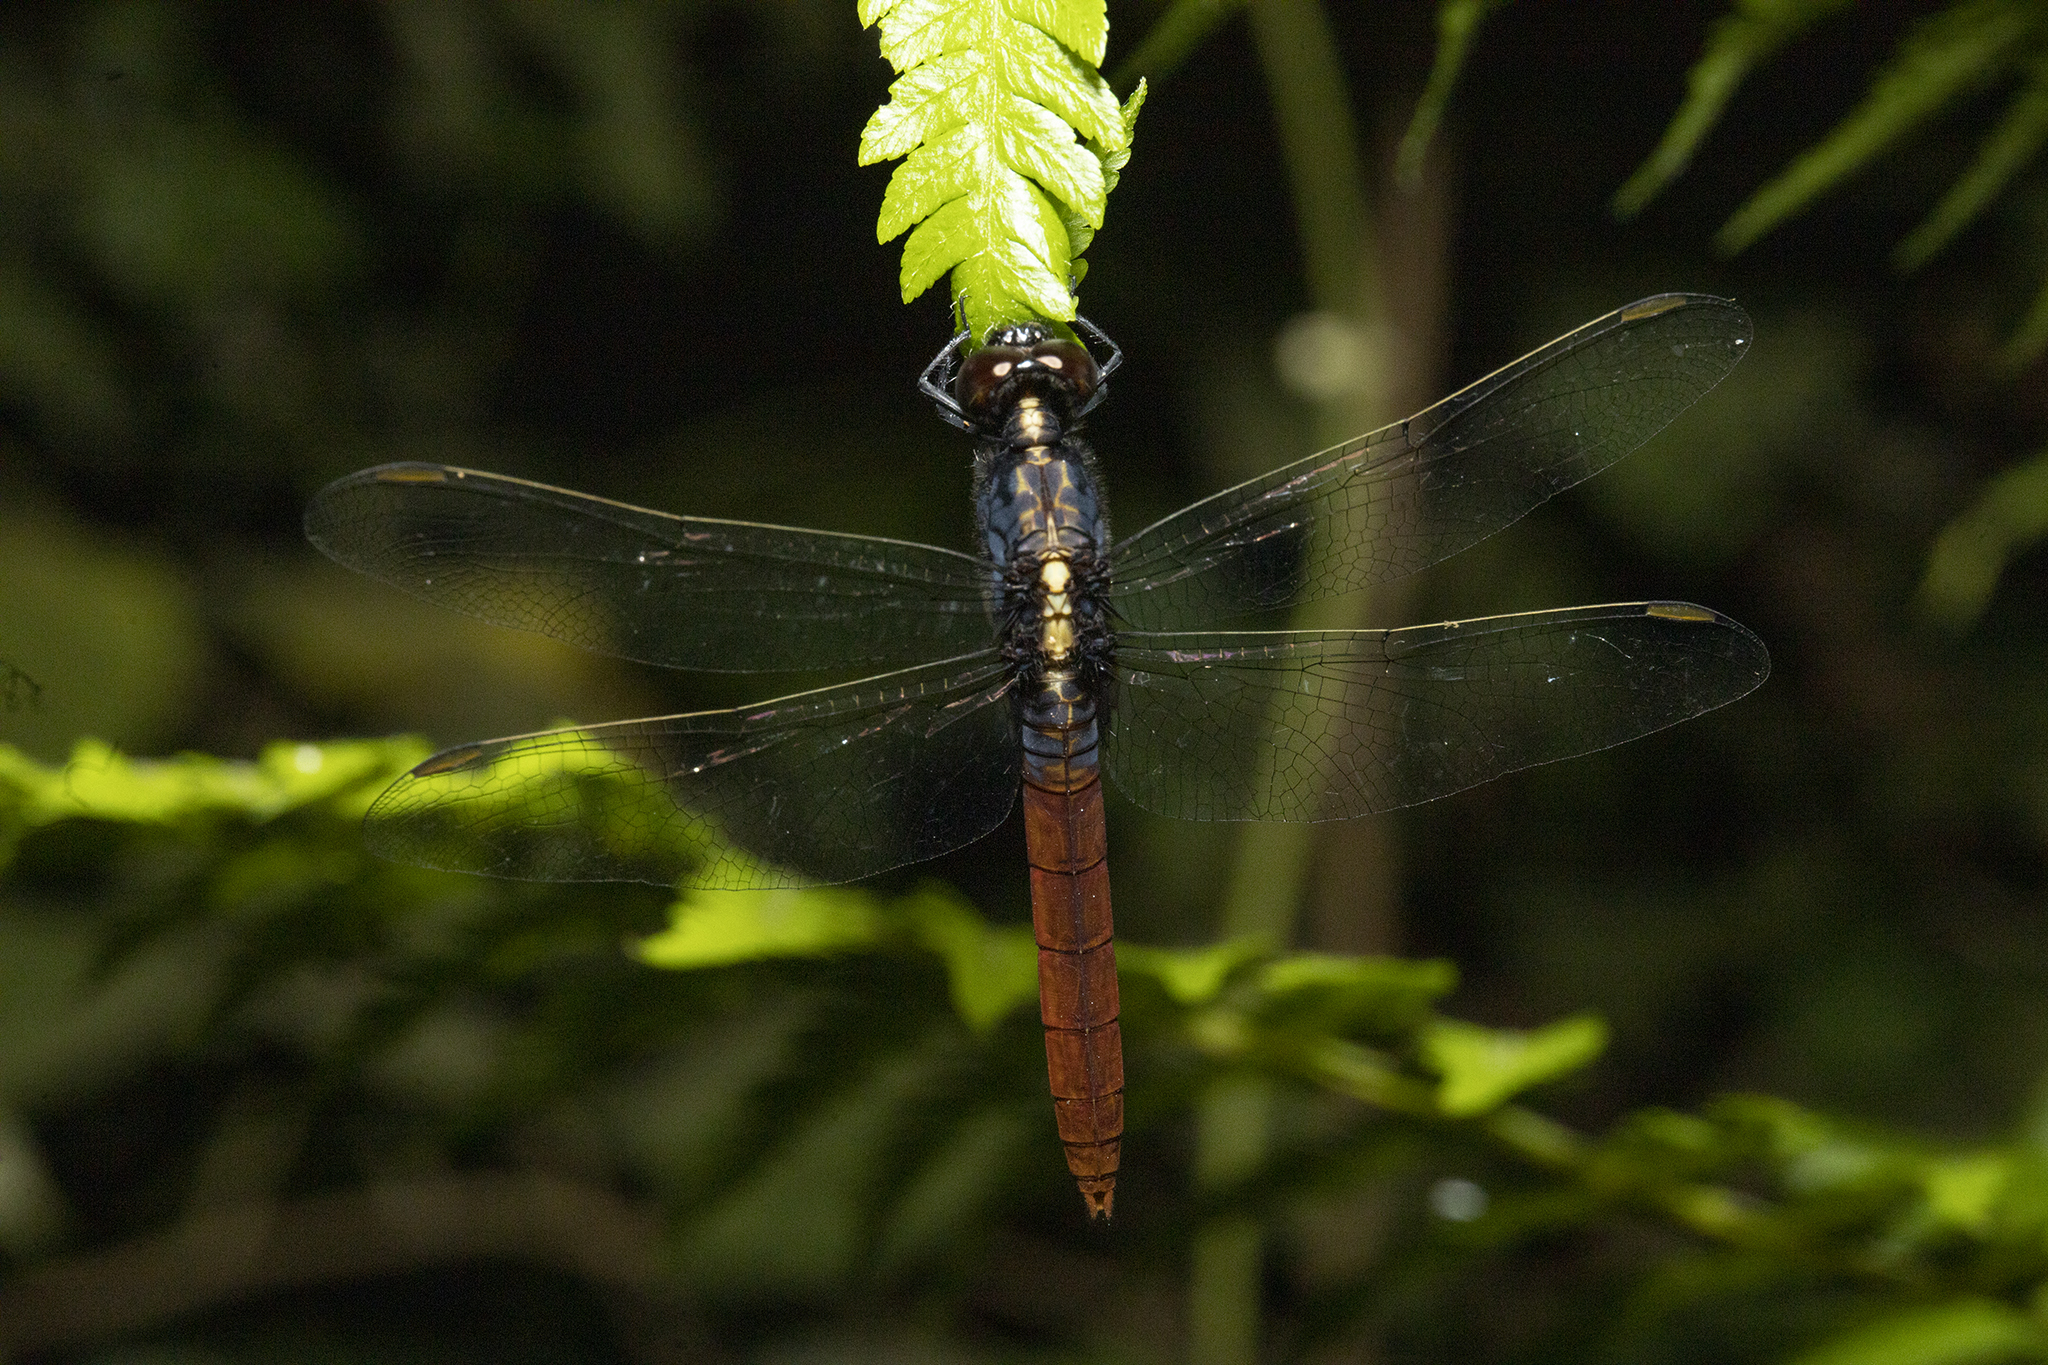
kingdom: Animalia
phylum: Arthropoda
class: Insecta
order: Odonata
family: Libellulidae
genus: Erythemis
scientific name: Erythemis peruviana
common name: Flame-tailed pondhawk
